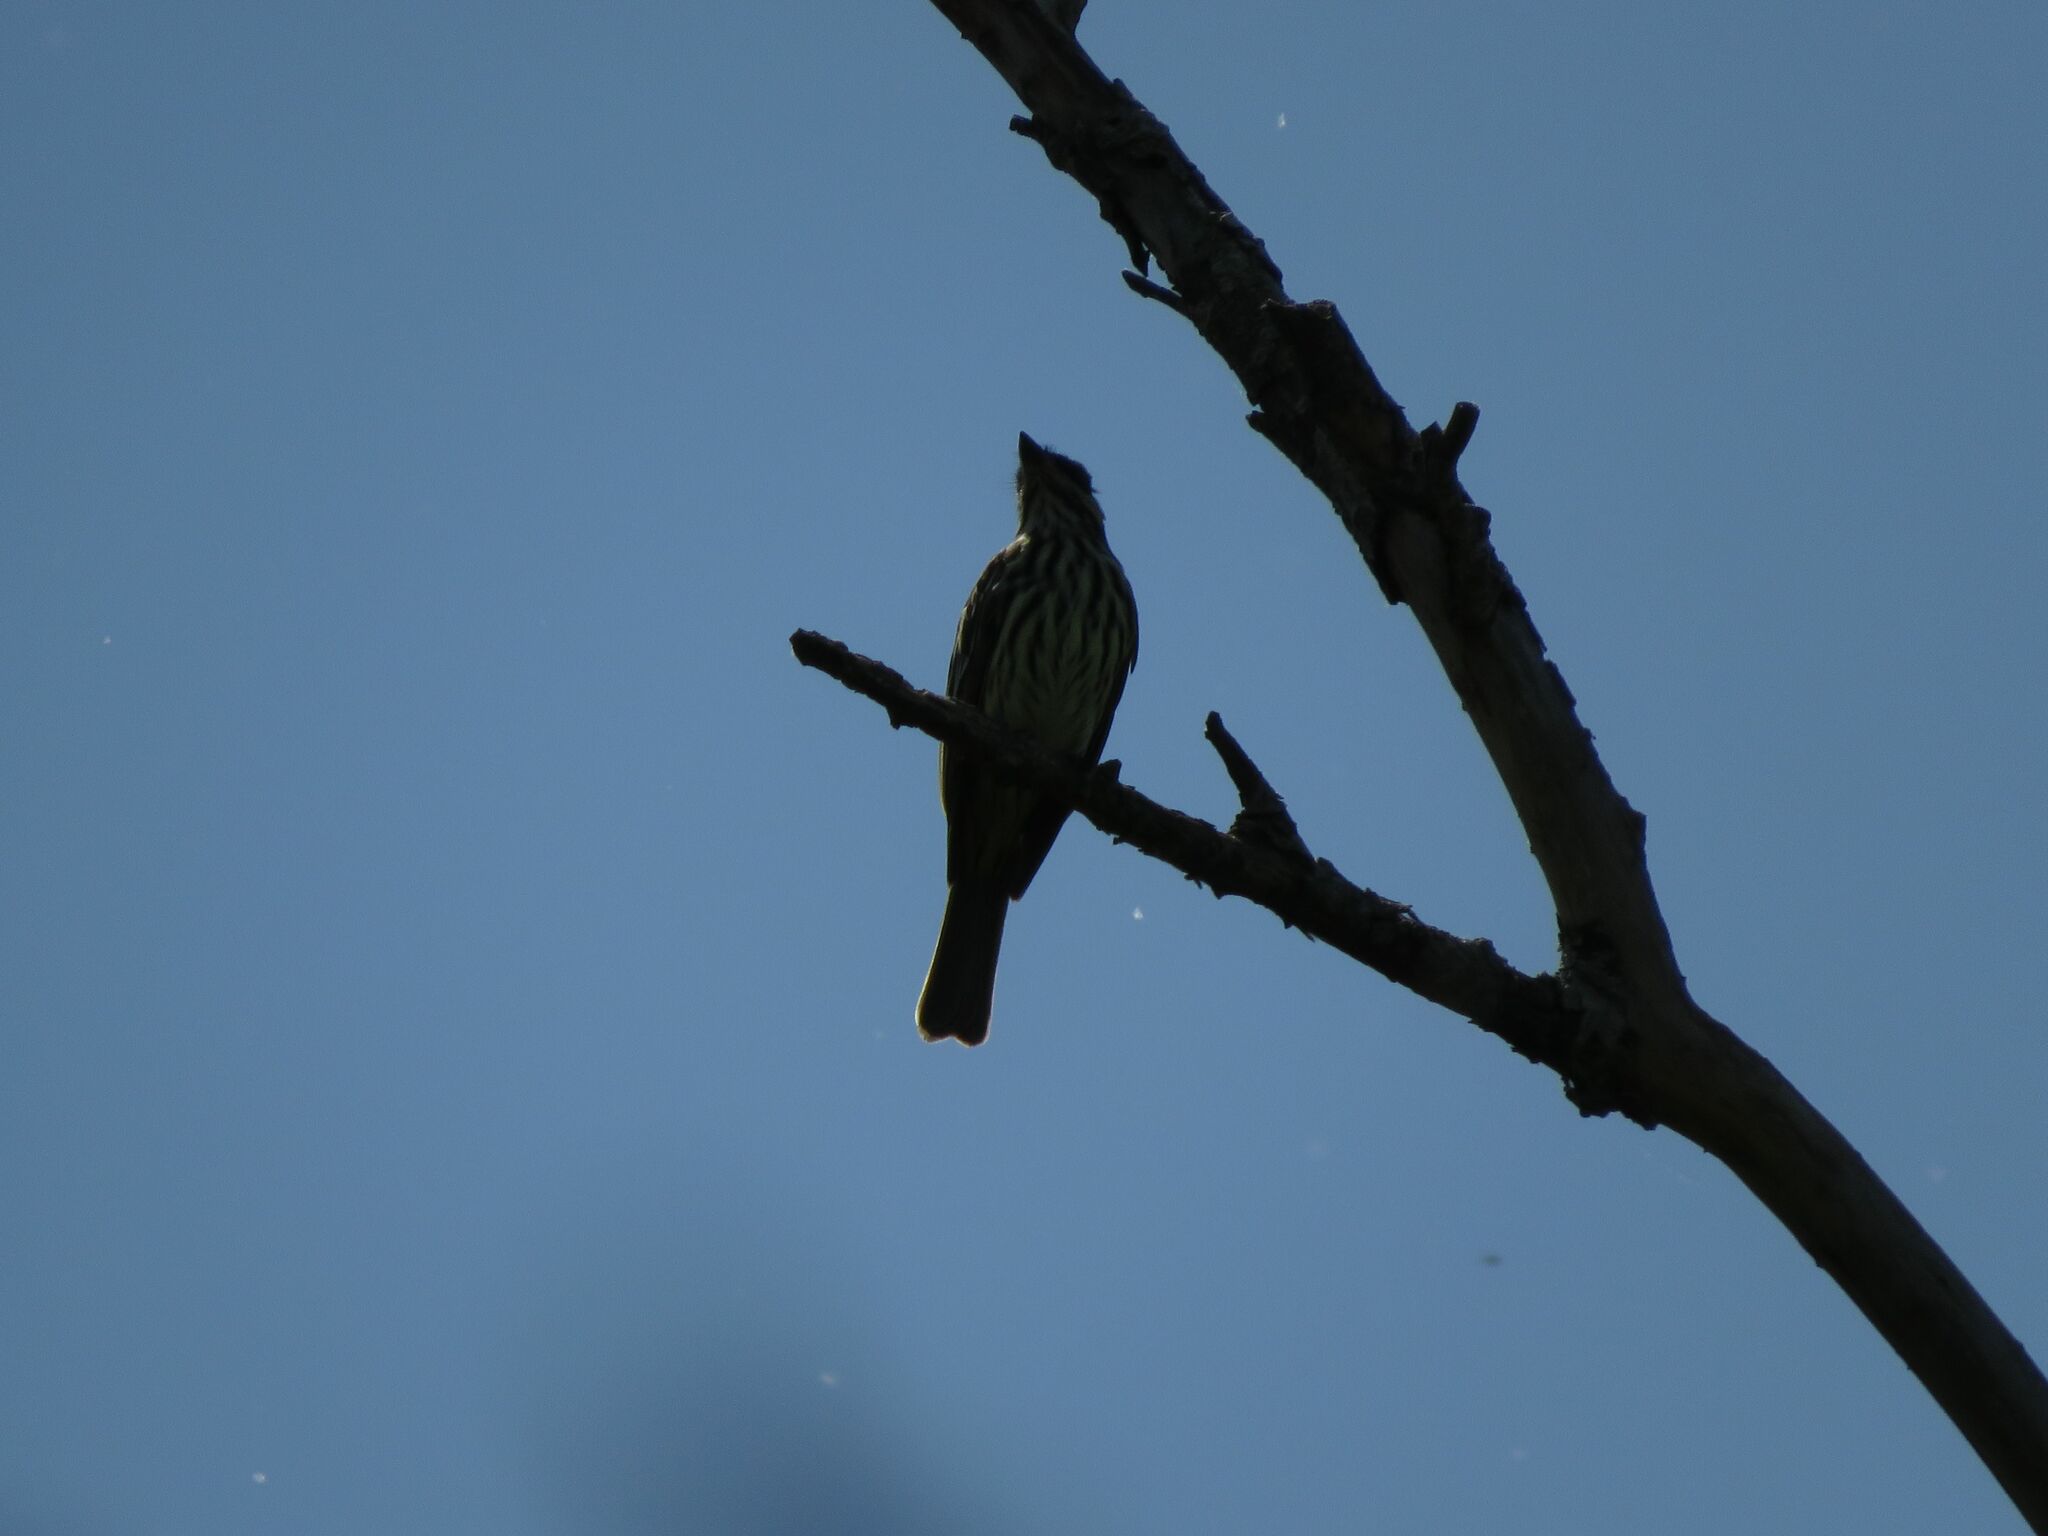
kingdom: Animalia
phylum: Chordata
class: Aves
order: Passeriformes
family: Tyrannidae
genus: Myiodynastes
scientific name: Myiodynastes maculatus
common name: Streaked flycatcher
